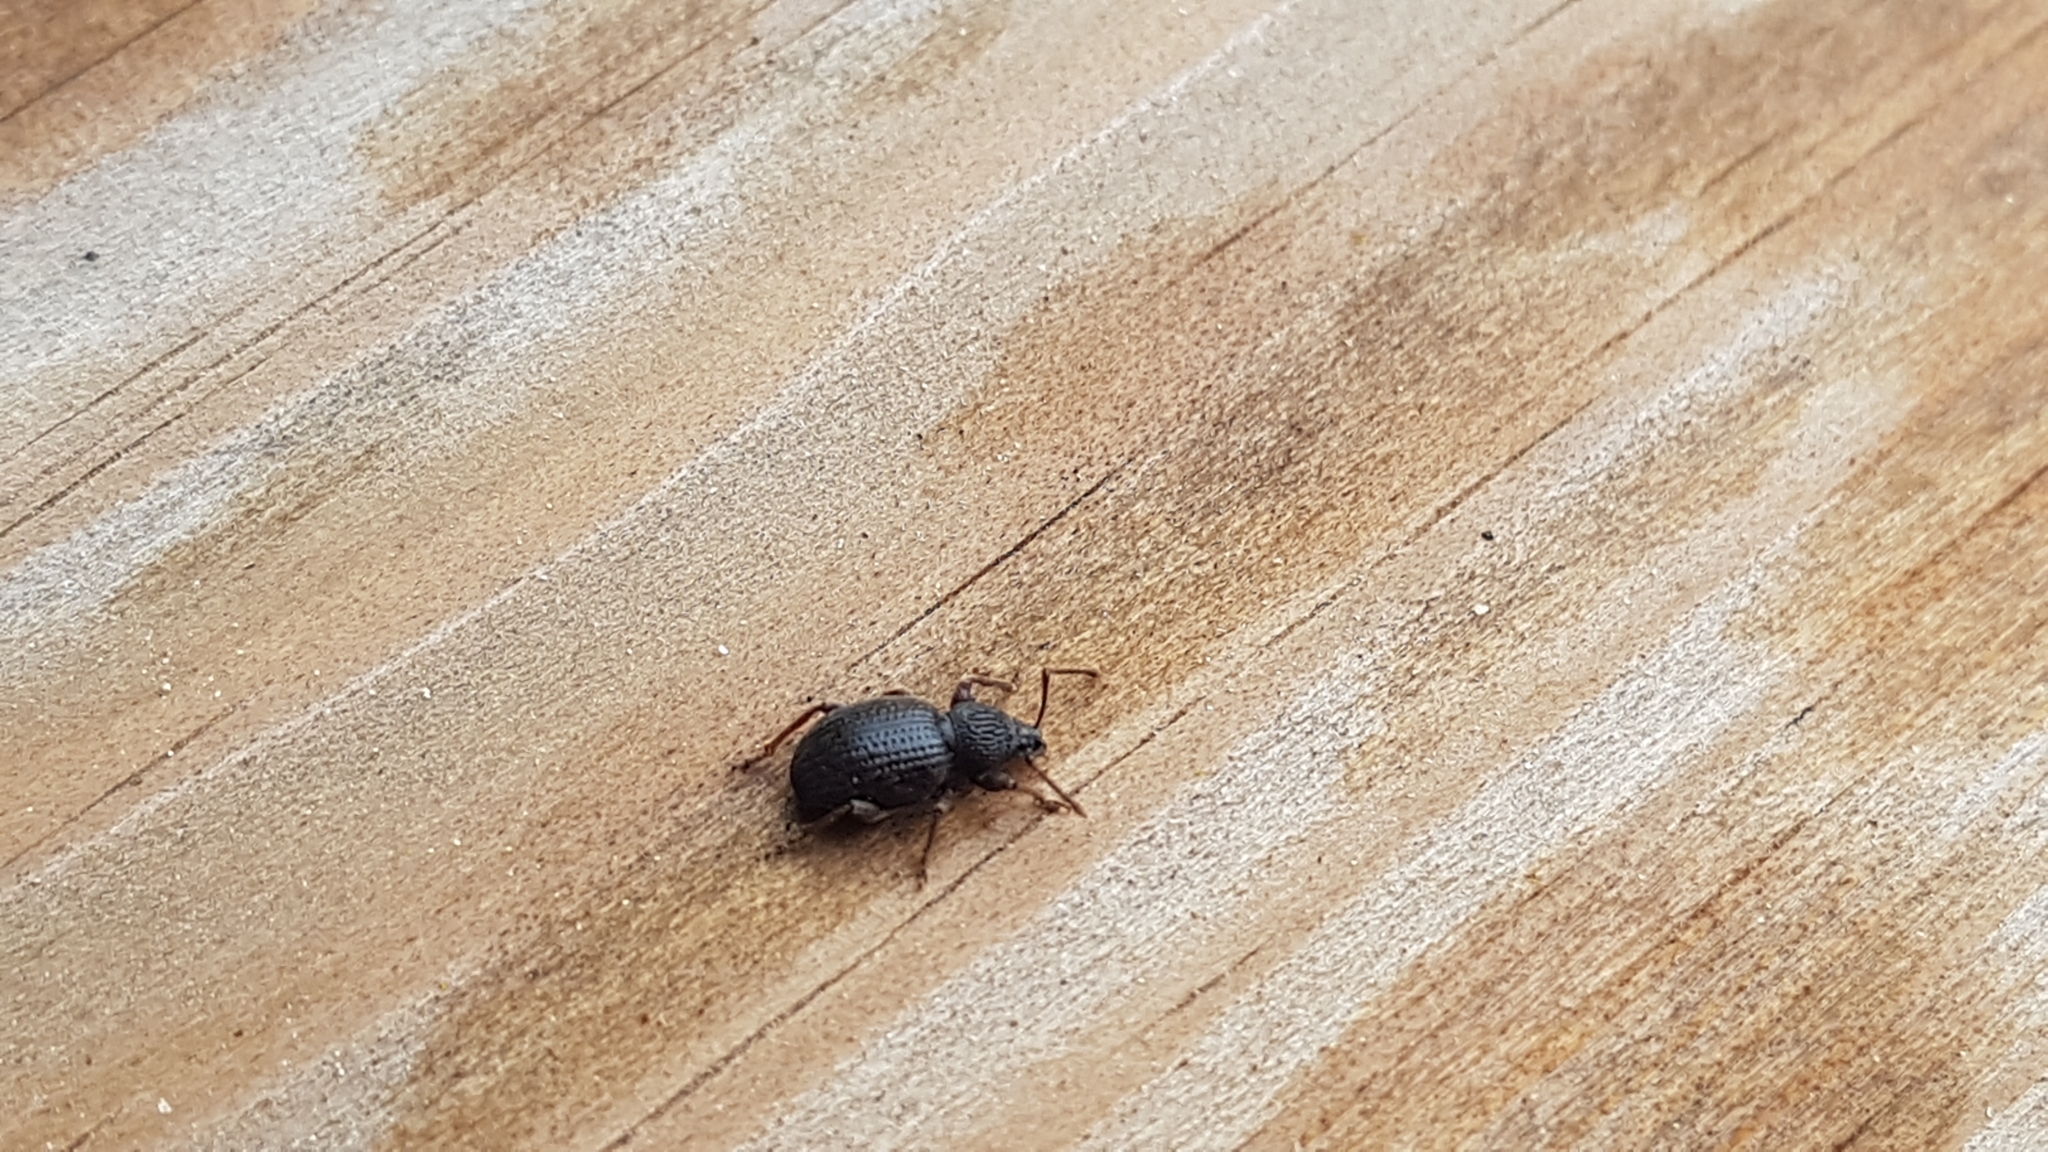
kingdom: Animalia
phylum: Arthropoda
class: Insecta
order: Coleoptera
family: Curculionidae
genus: Otiorhynchus
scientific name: Otiorhynchus ovatus
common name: Strawberry root weevil
